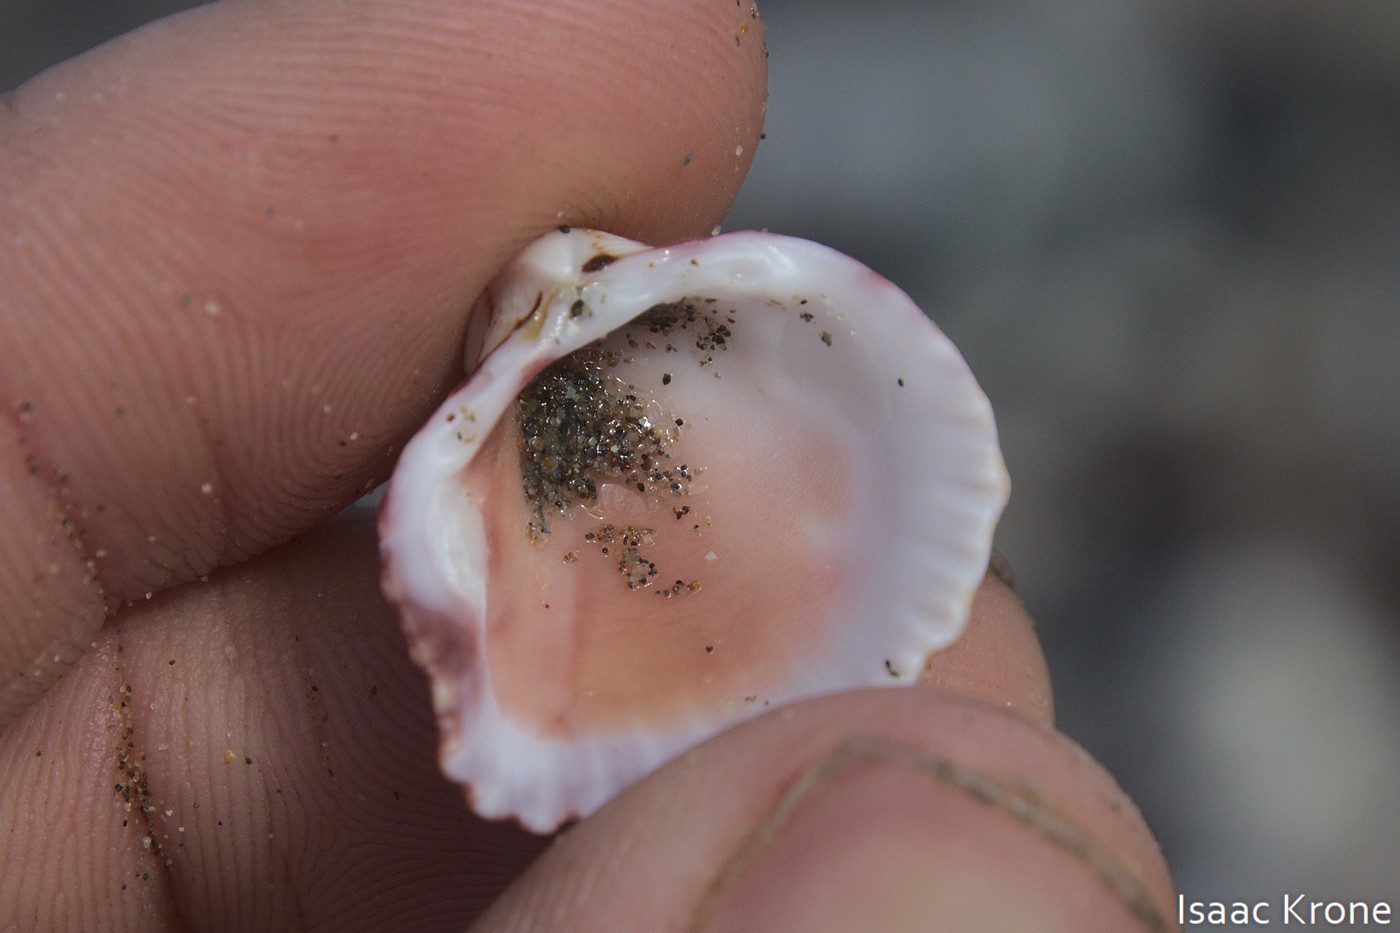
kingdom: Animalia
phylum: Mollusca
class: Bivalvia
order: Cardiida
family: Cardiidae
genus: Americardia
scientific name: Americardia biangulata
